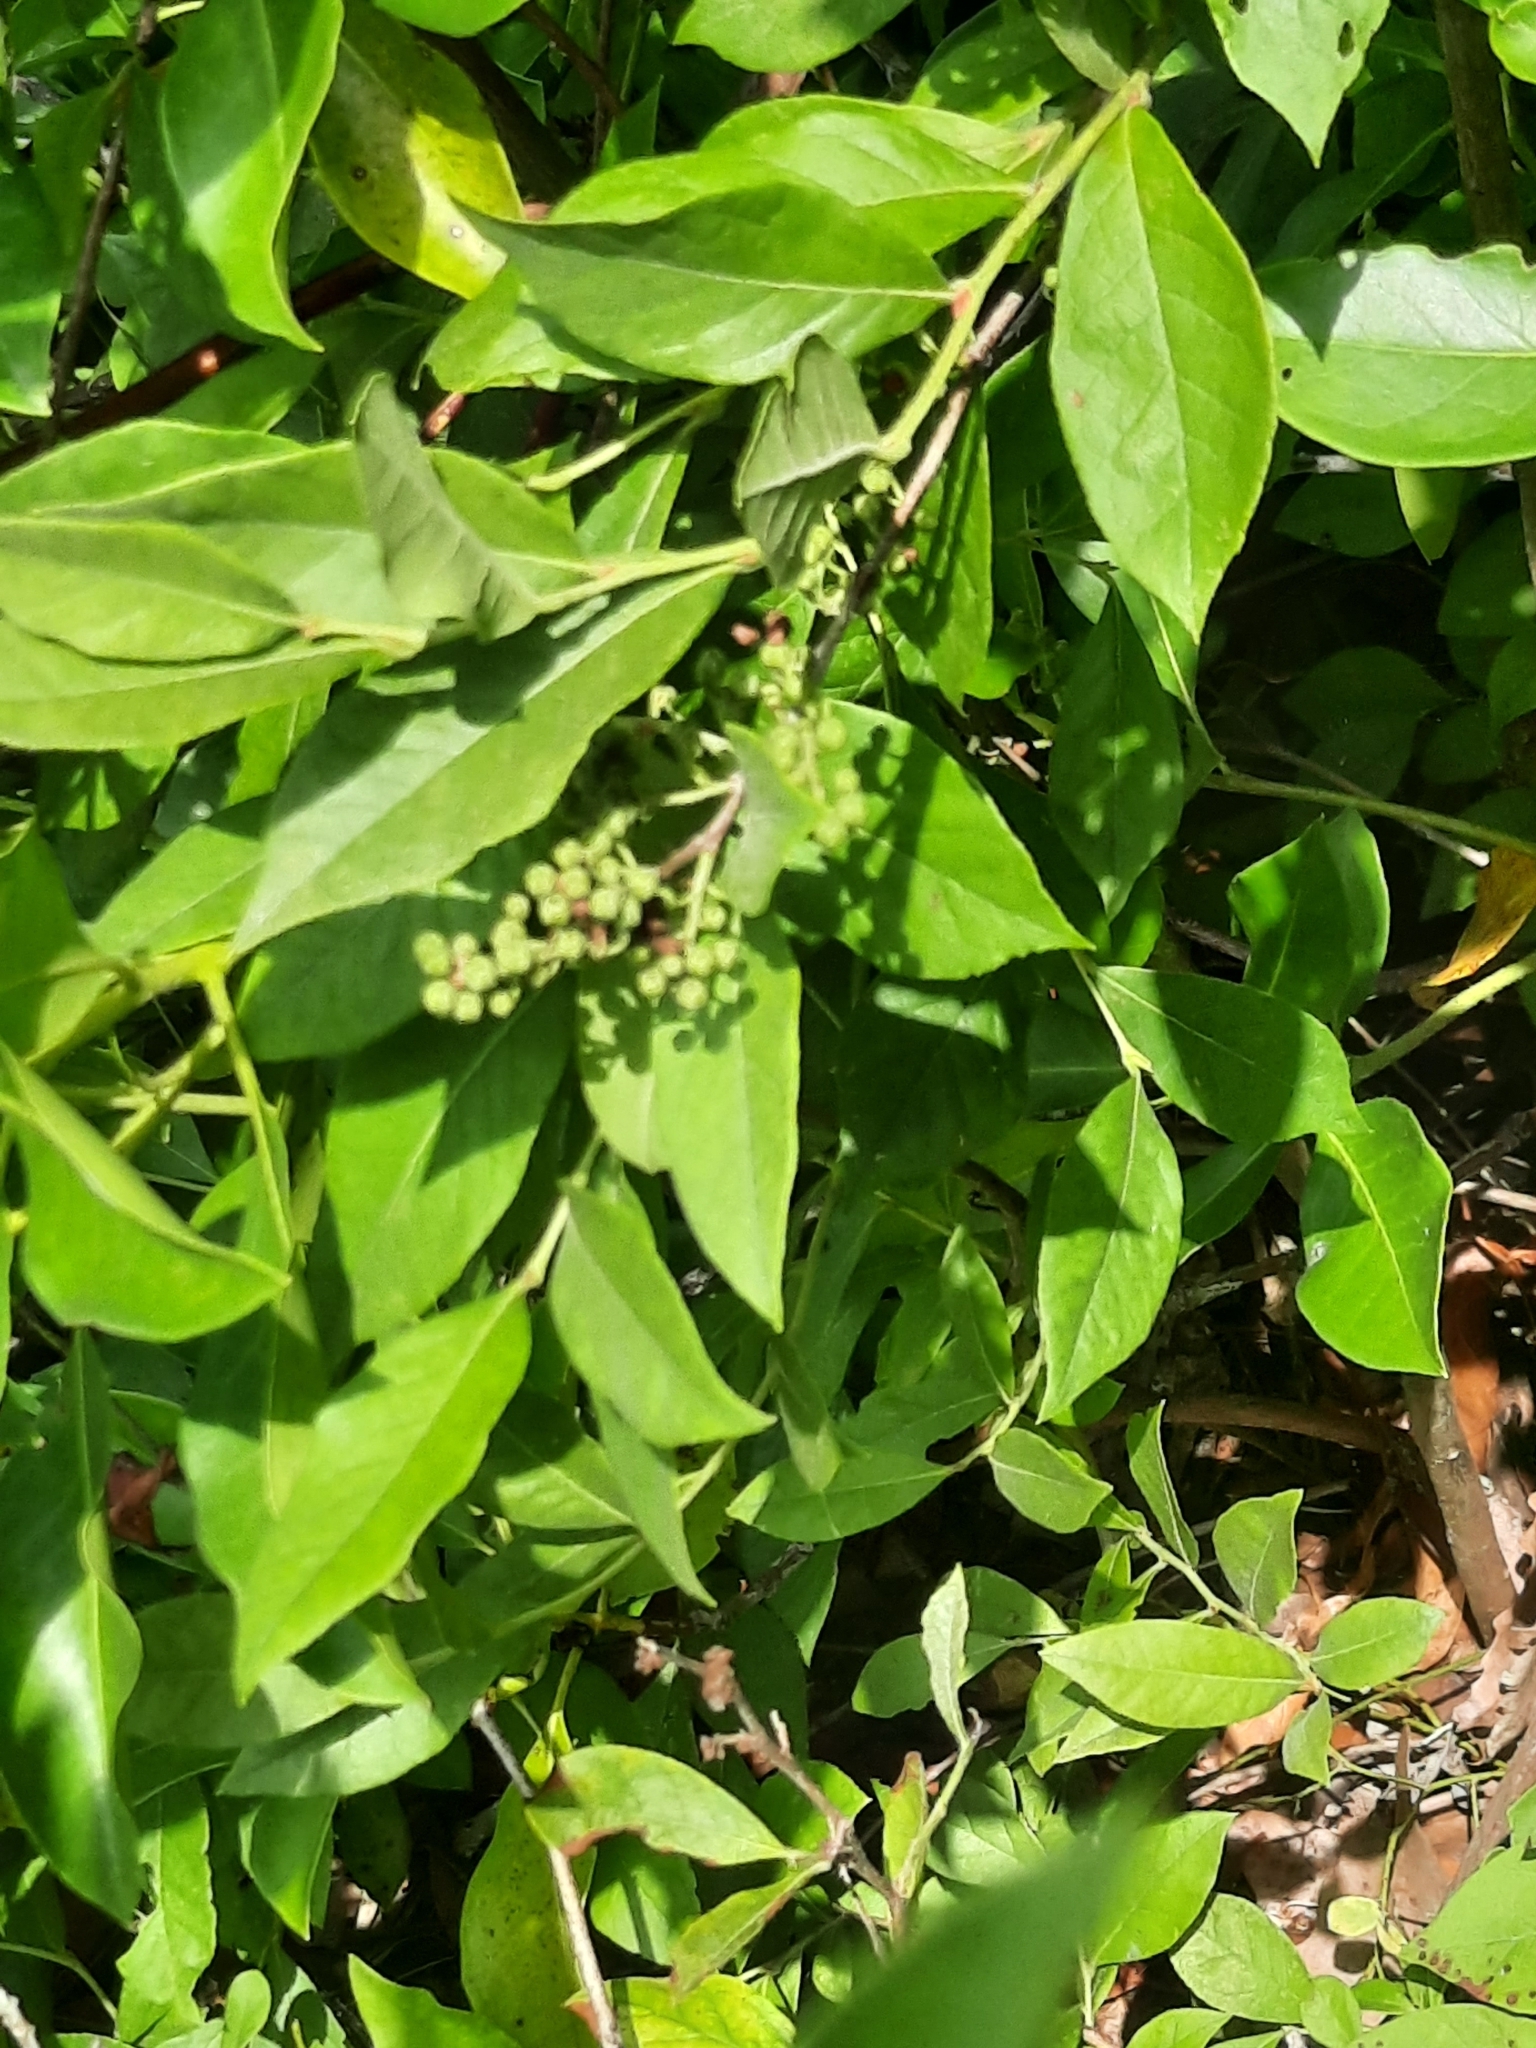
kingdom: Plantae
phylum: Tracheophyta
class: Magnoliopsida
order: Ericales
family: Ericaceae
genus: Lyonia
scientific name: Lyonia ligustrina
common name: Maleberry
